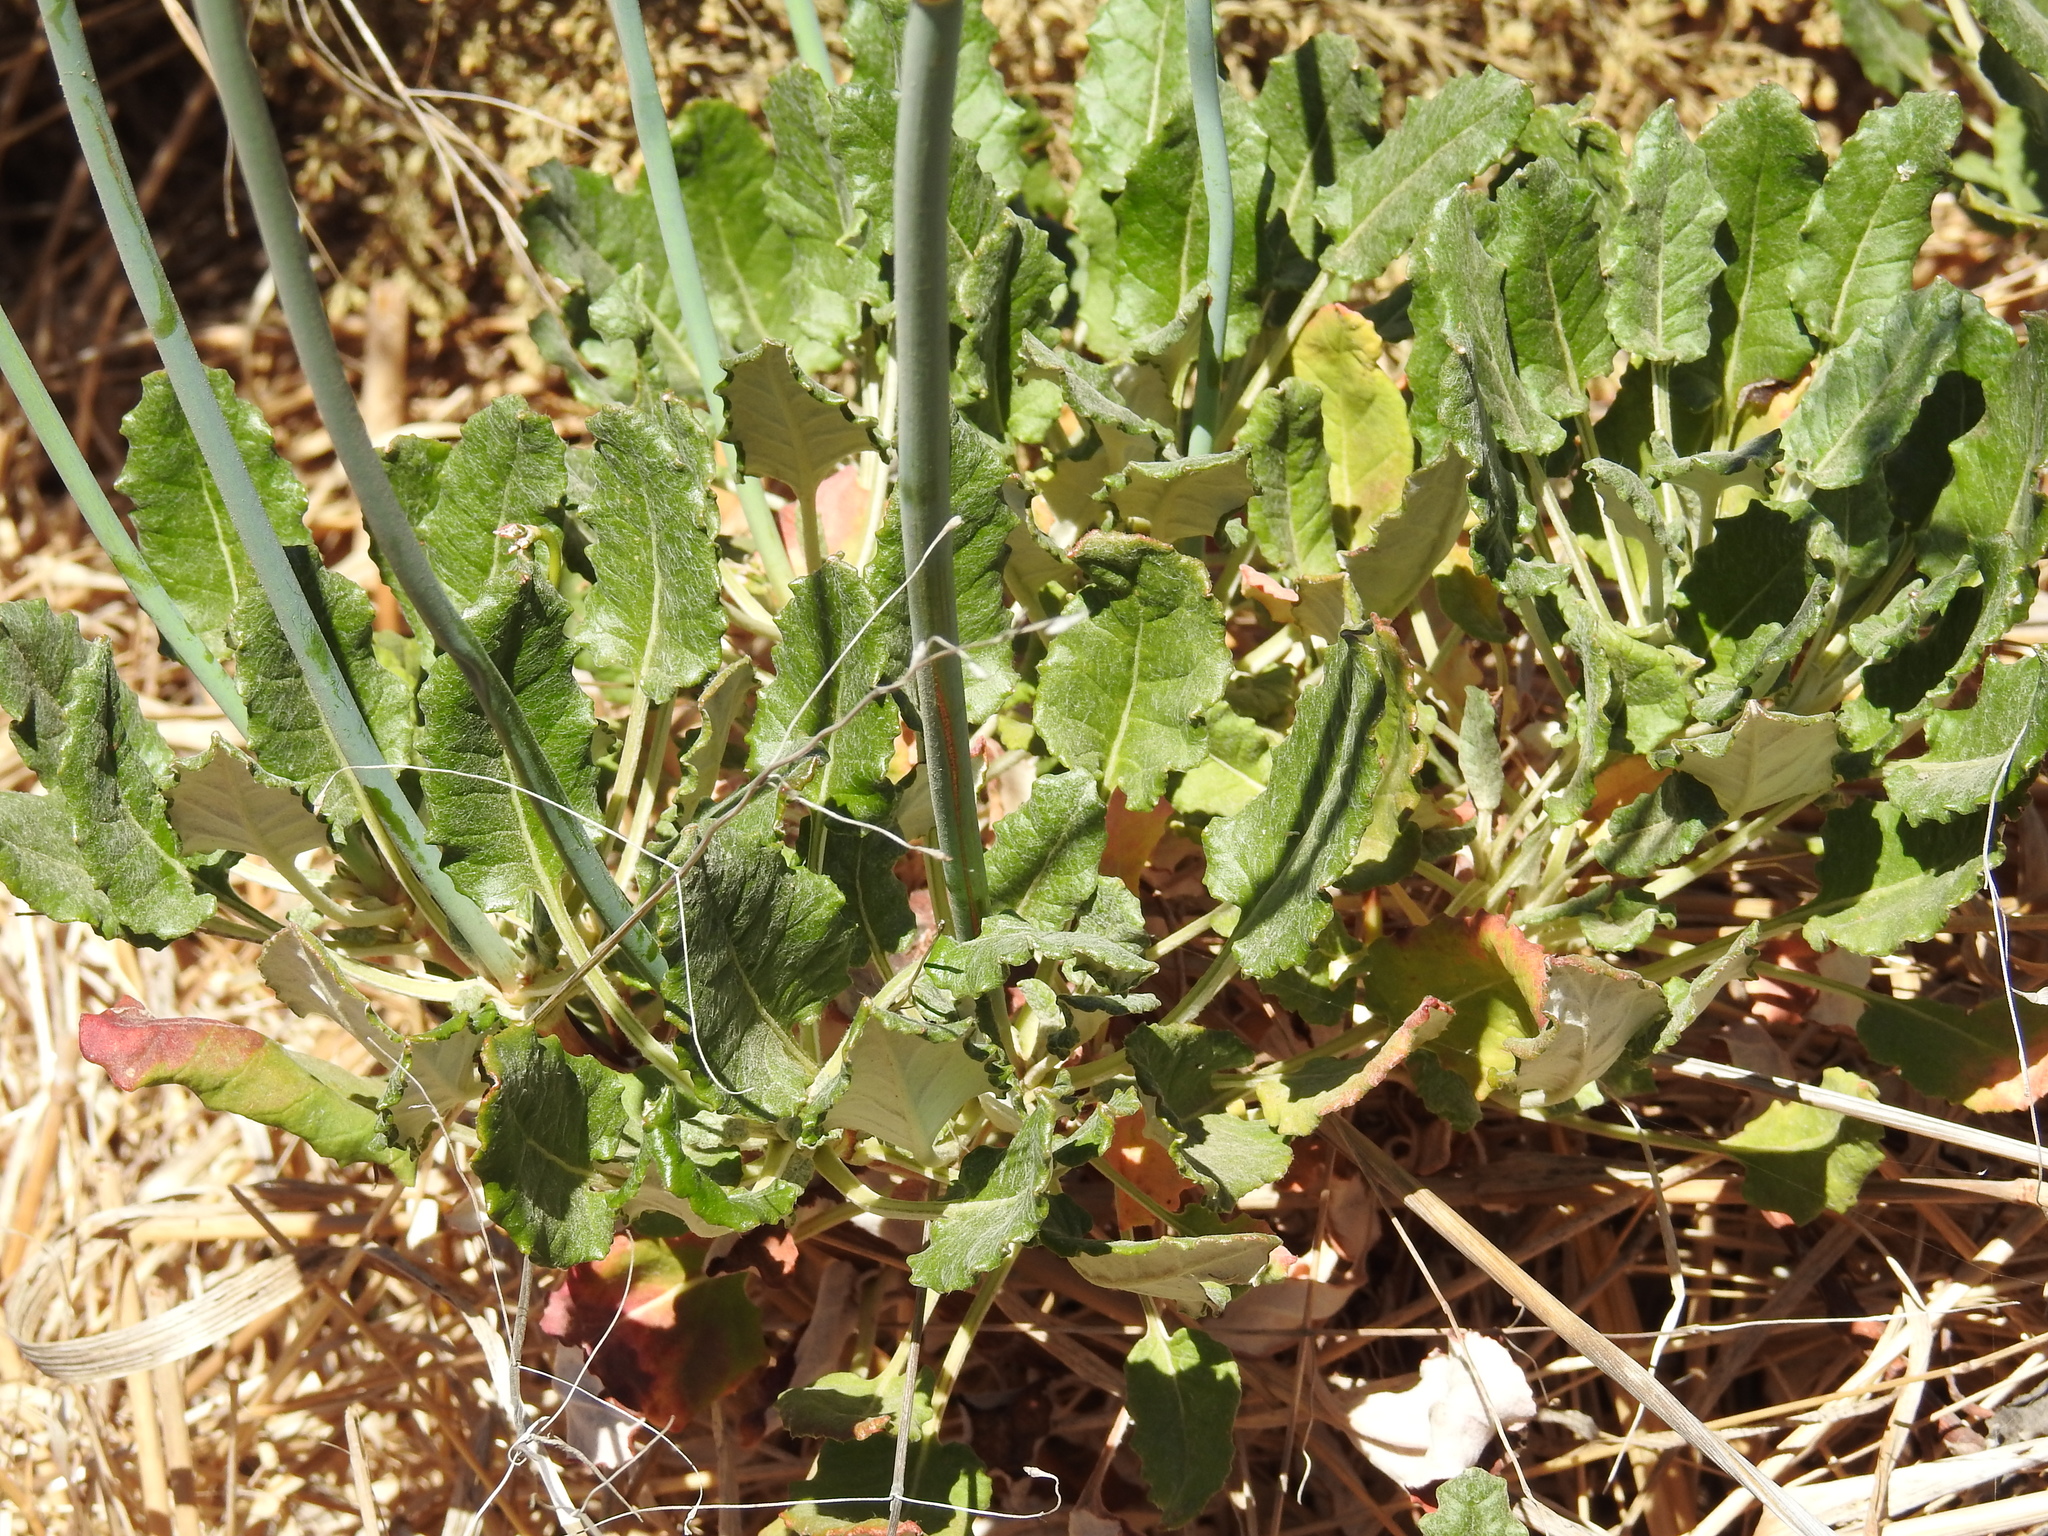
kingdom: Plantae
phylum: Tracheophyta
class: Magnoliopsida
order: Caryophyllales
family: Polygonaceae
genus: Eriogonum
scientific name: Eriogonum grande
